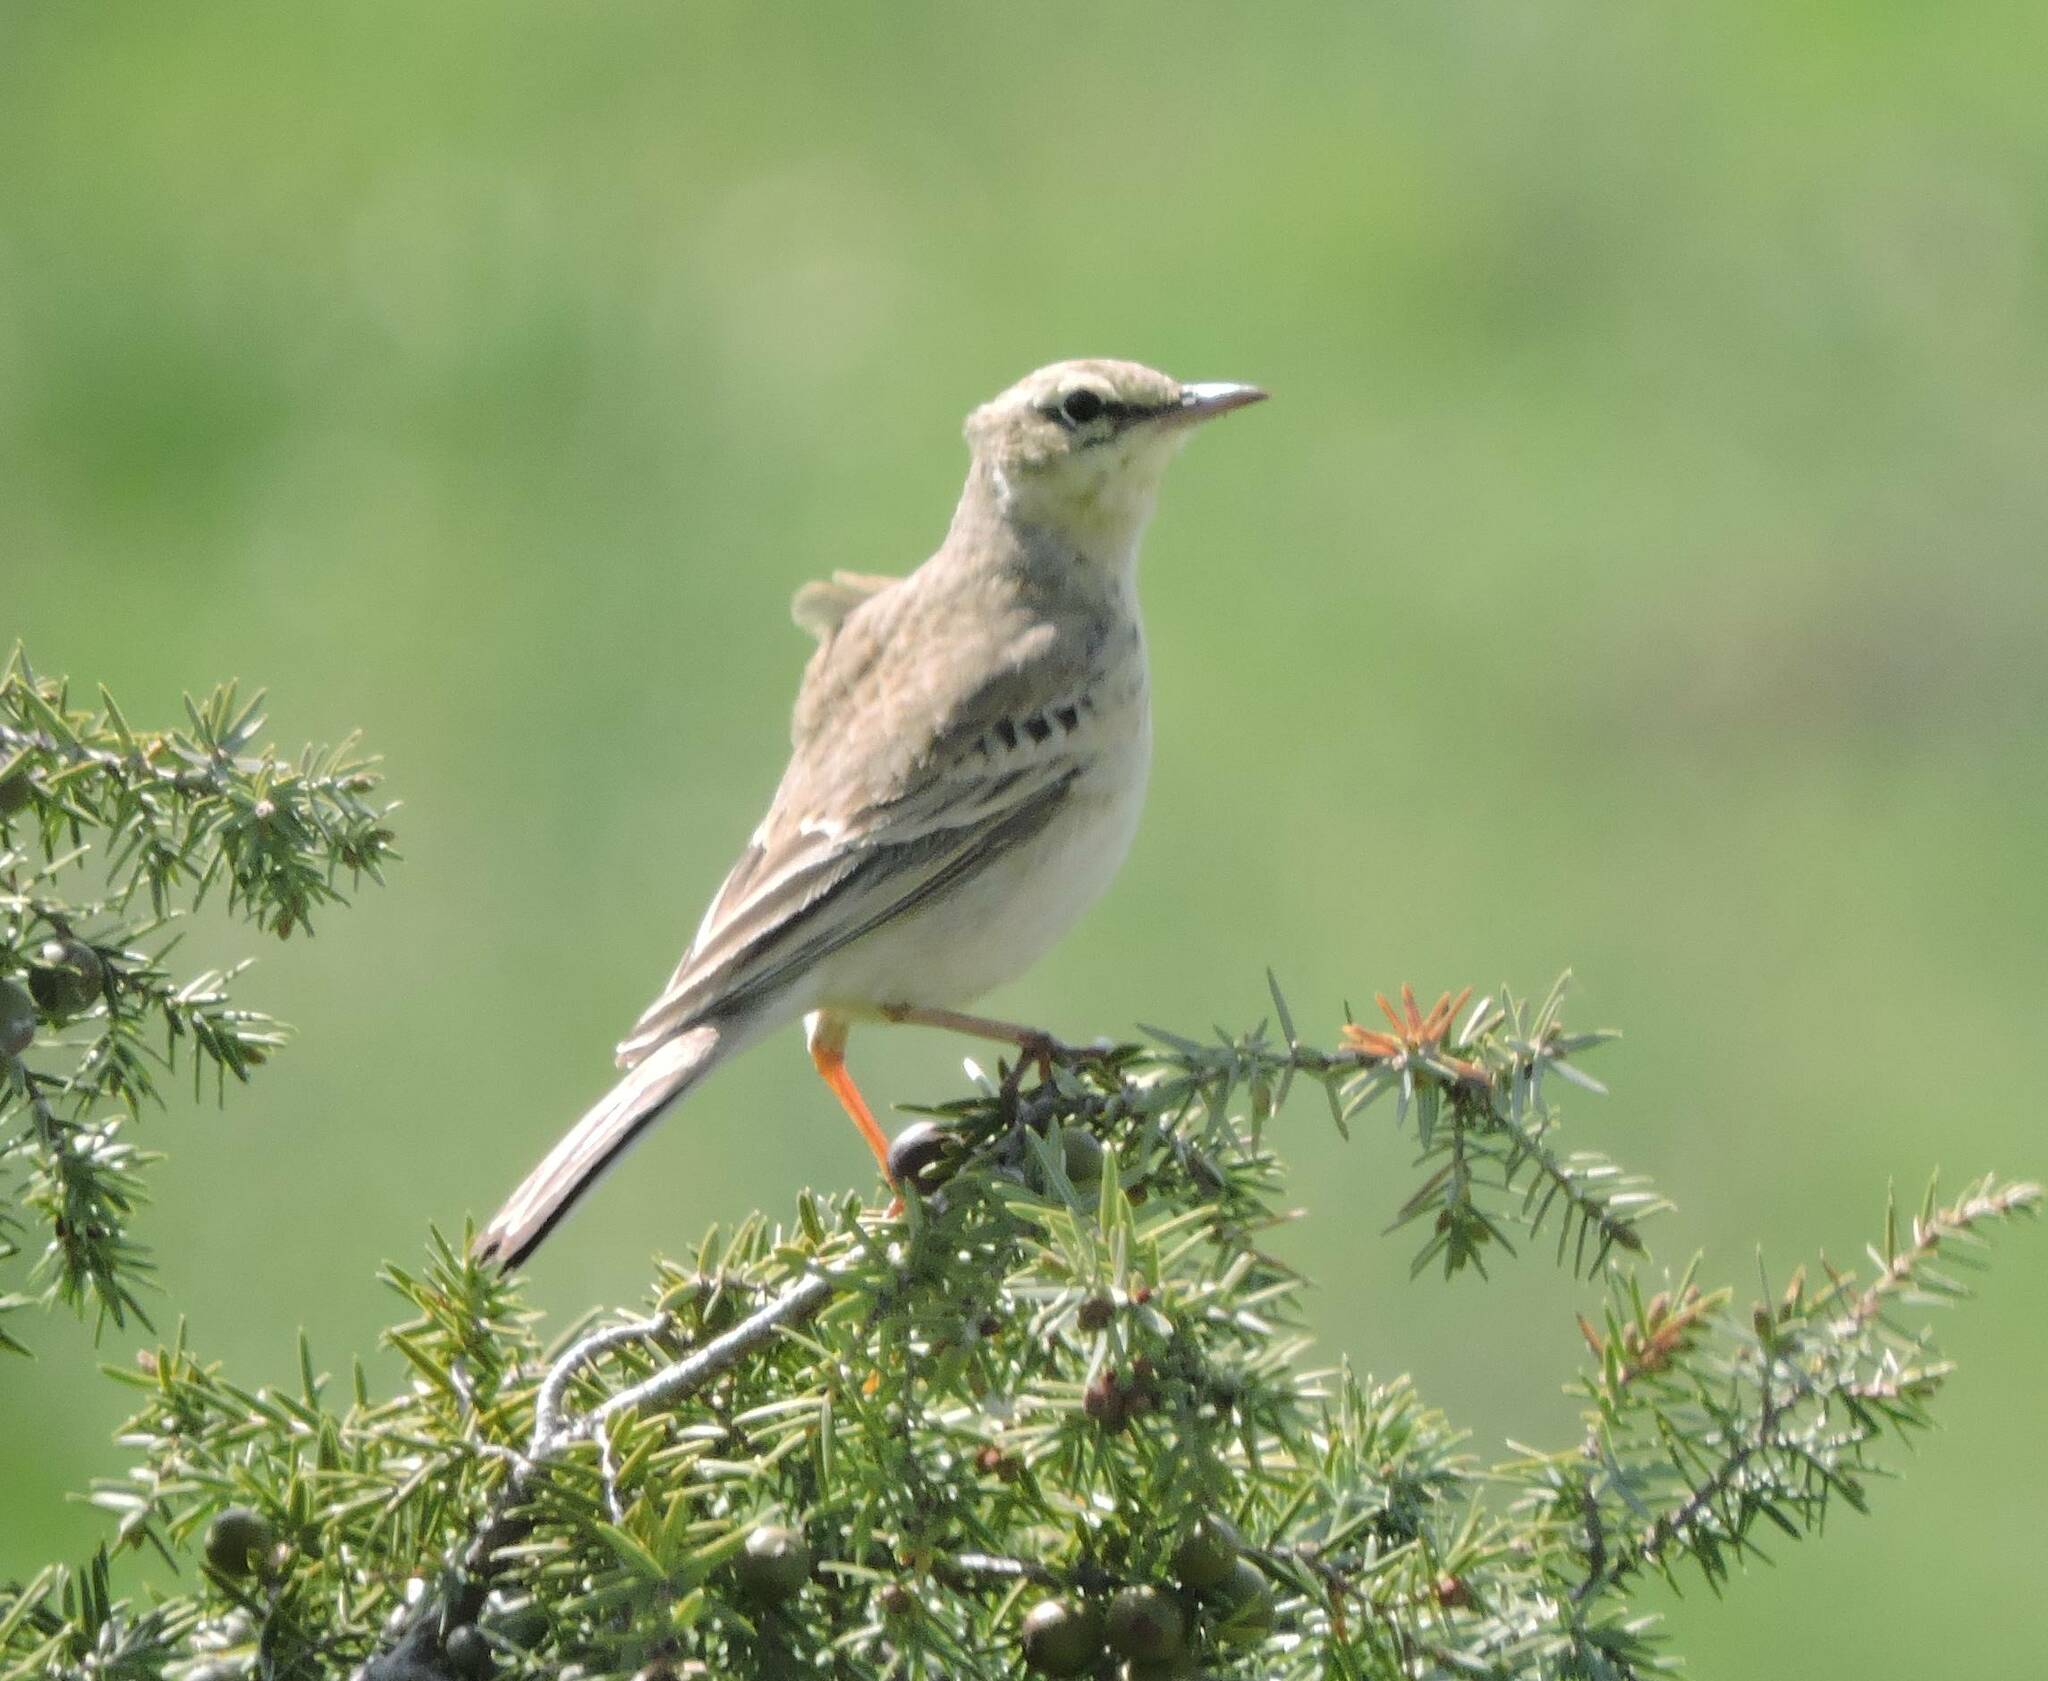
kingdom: Animalia
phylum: Chordata
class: Aves
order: Passeriformes
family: Motacillidae
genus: Anthus
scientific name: Anthus campestris
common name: Tawny pipit
